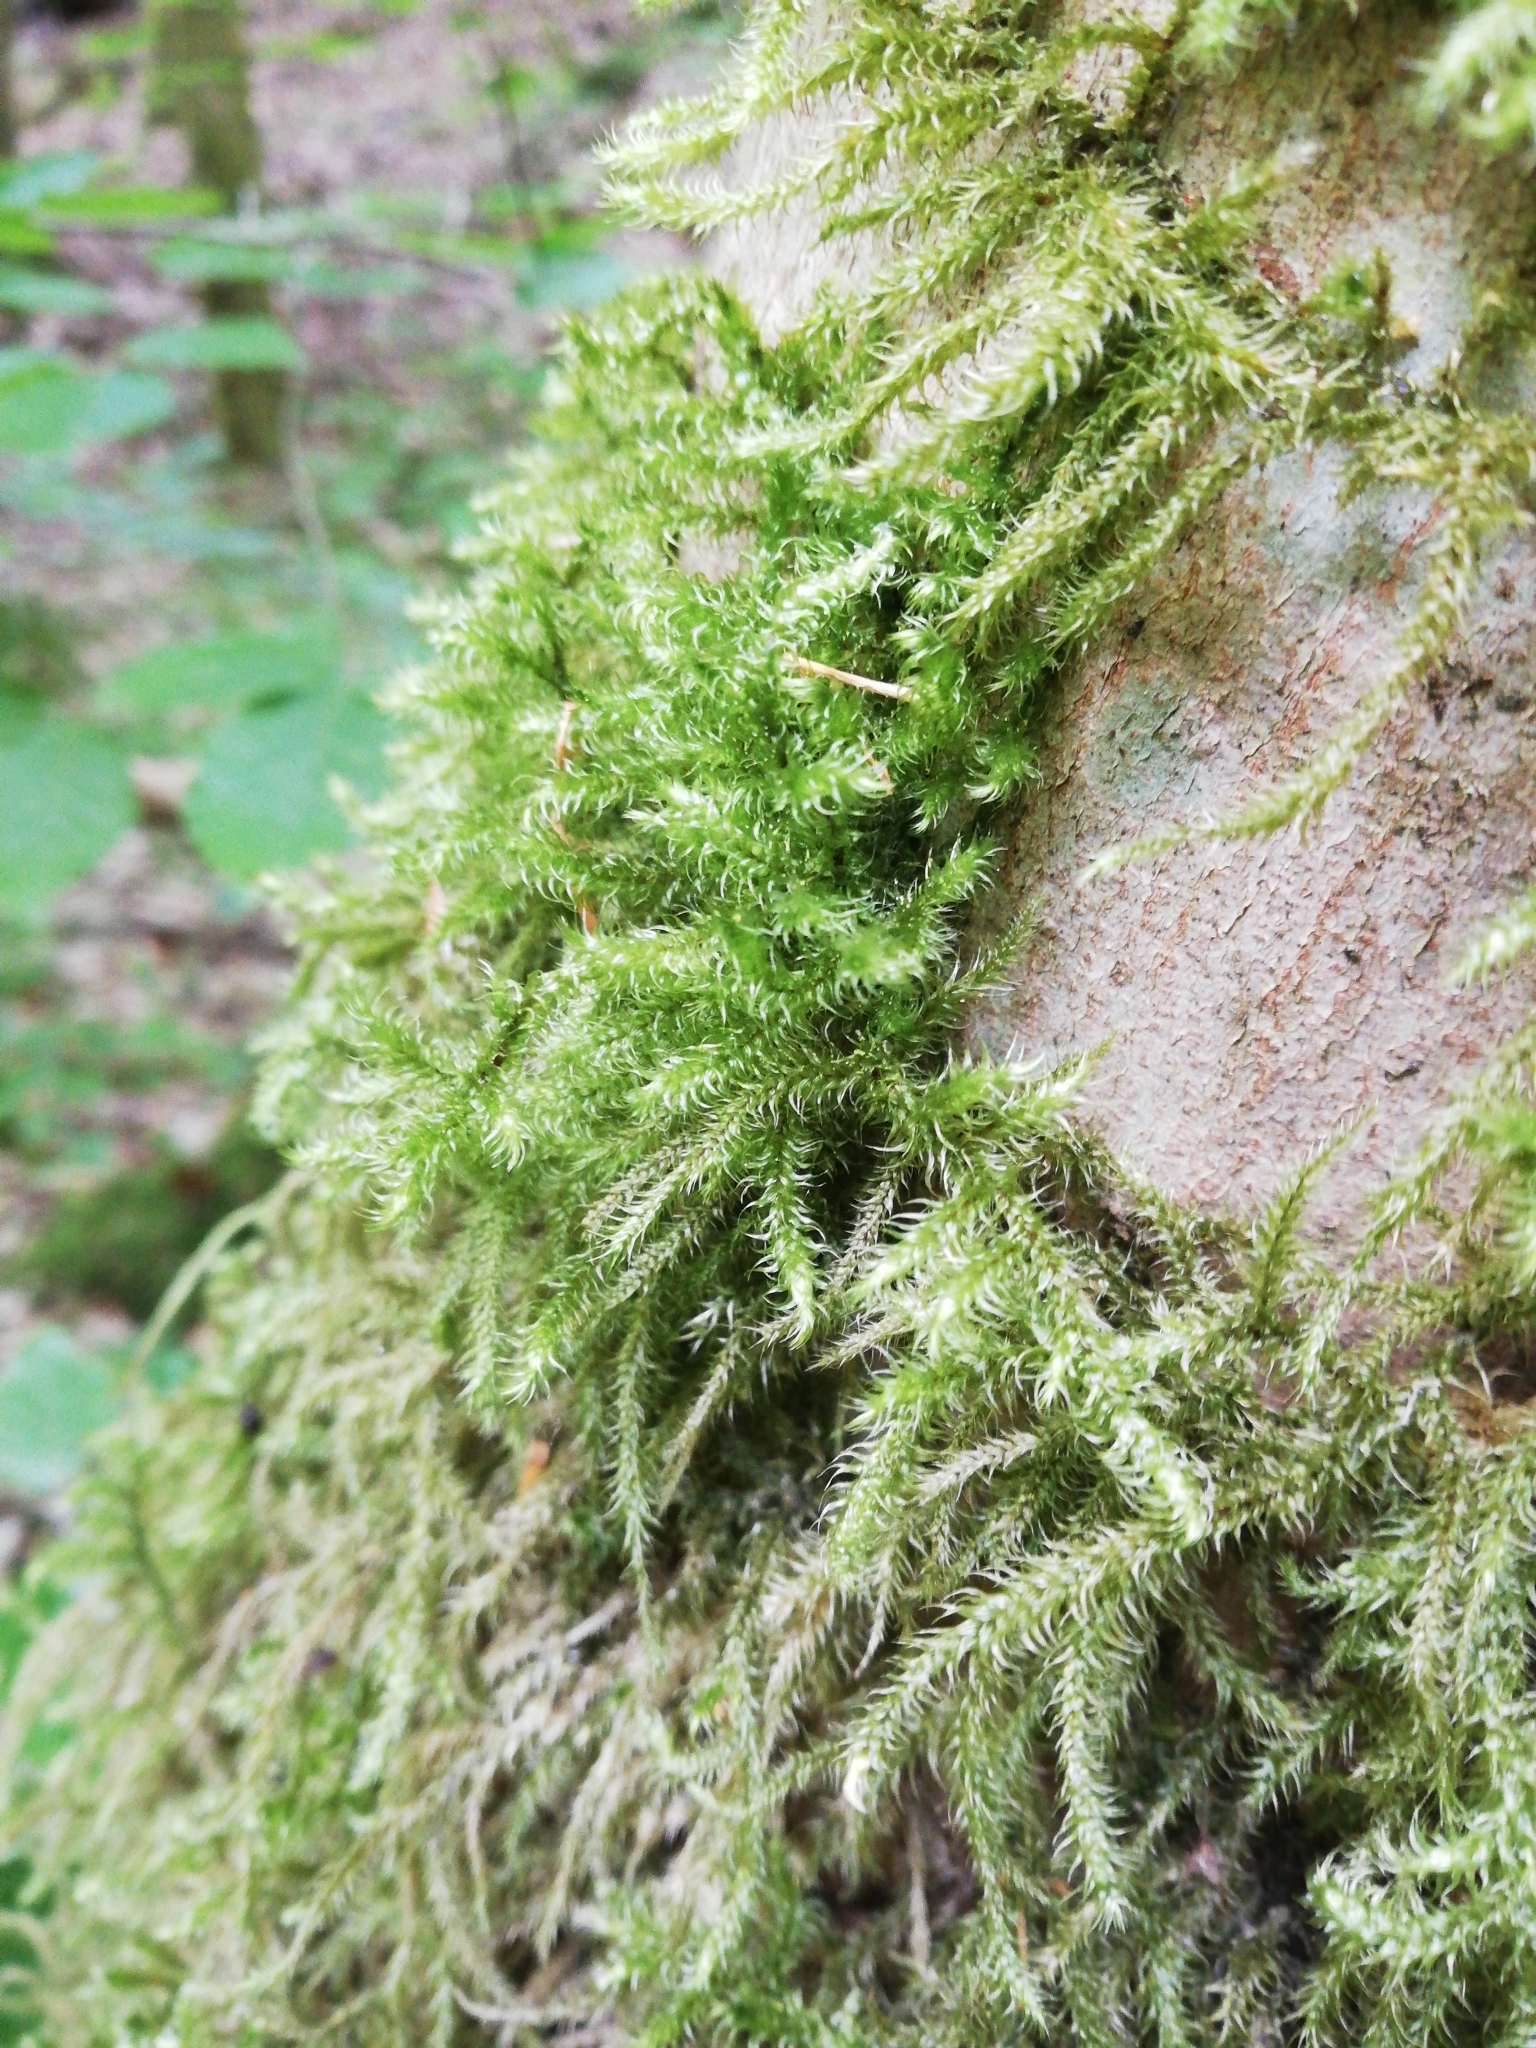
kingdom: Plantae
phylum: Bryophyta
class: Bryopsida
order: Hypnales
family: Hylocomiaceae
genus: Rhytidiadelphus
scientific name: Rhytidiadelphus loreus
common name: Lanky moss
